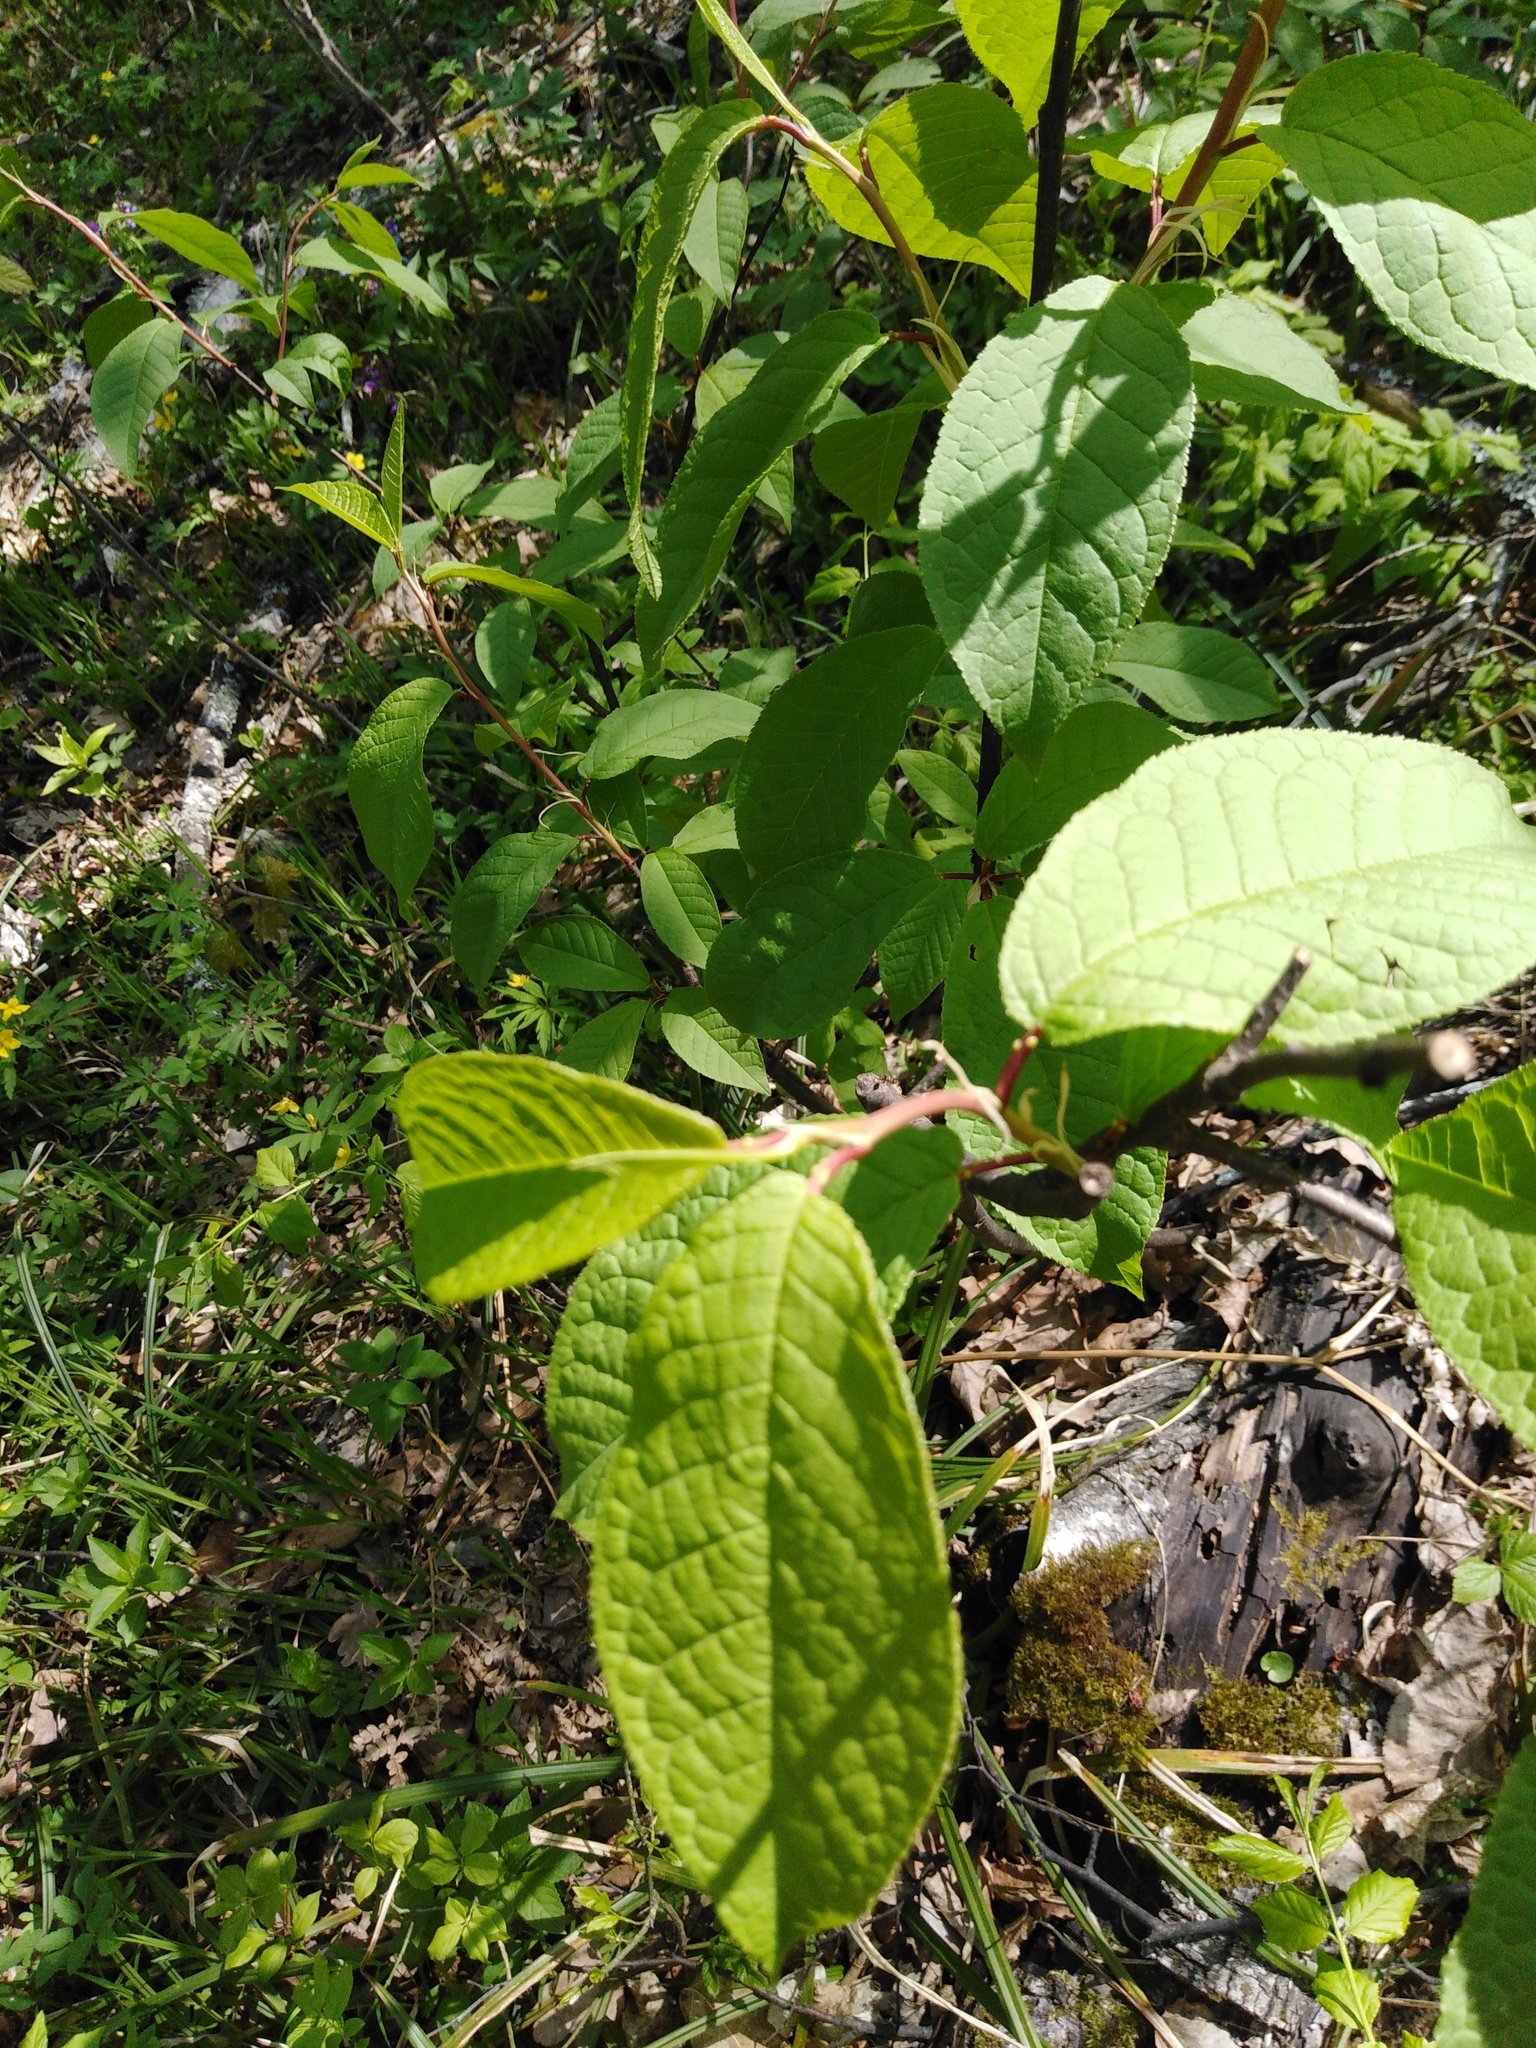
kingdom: Plantae
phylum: Tracheophyta
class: Magnoliopsida
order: Rosales
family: Rosaceae
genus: Prunus
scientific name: Prunus padus
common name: Bird cherry
